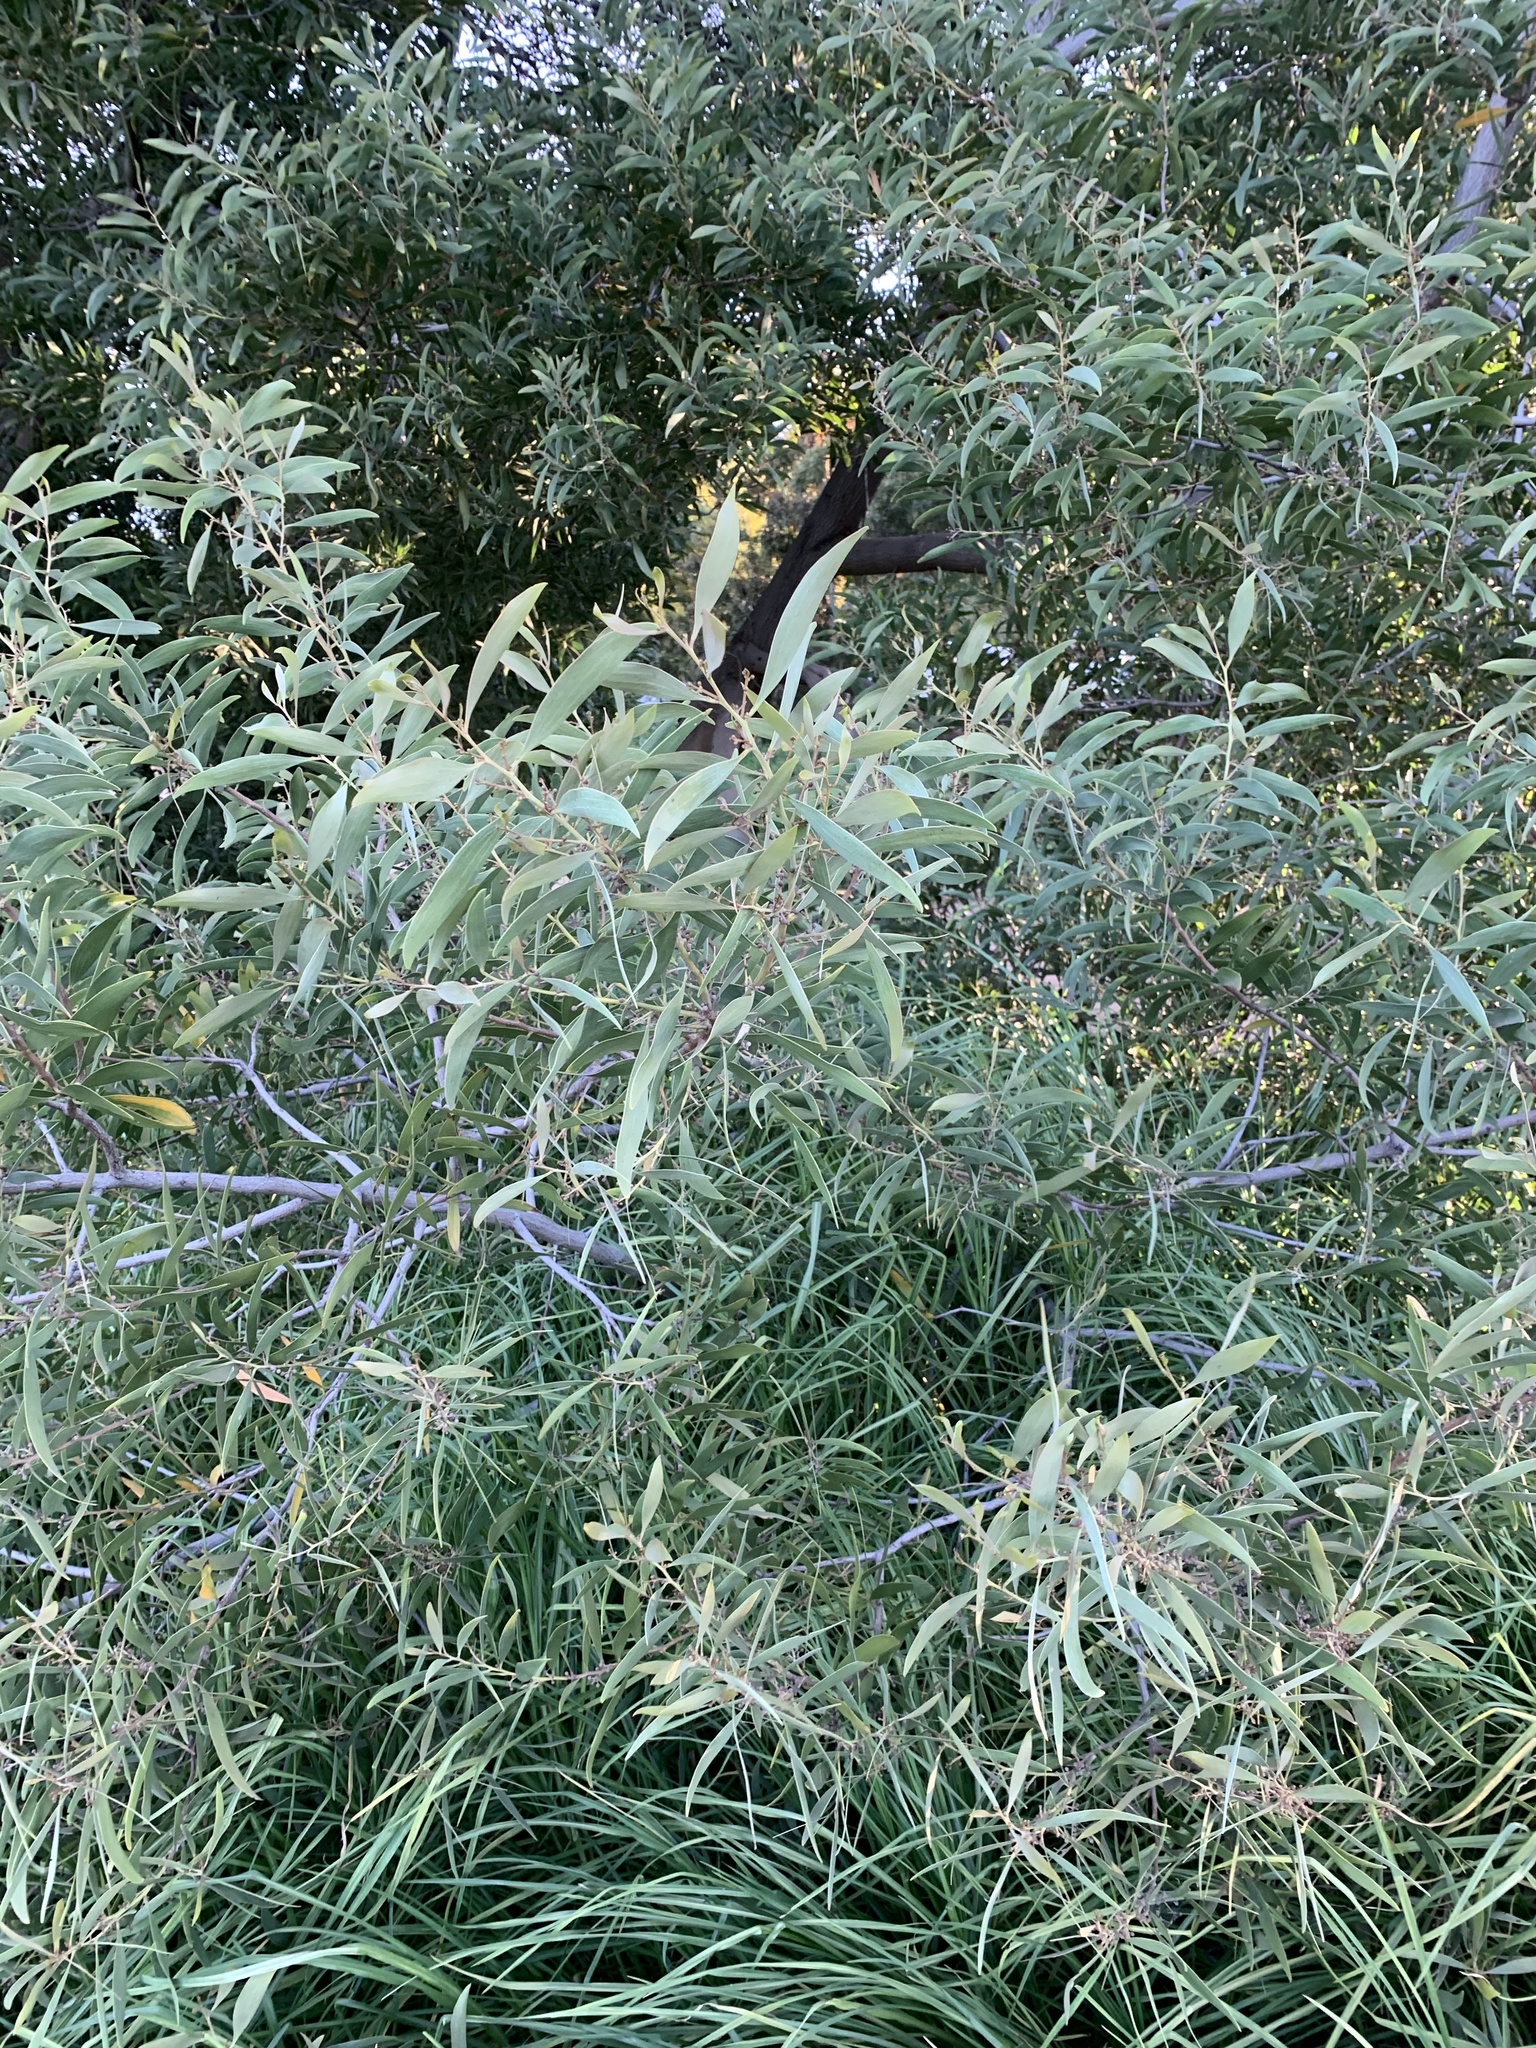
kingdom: Plantae
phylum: Tracheophyta
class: Magnoliopsida
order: Fabales
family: Fabaceae
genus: Acacia
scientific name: Acacia melanoxylon
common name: Blackwood
